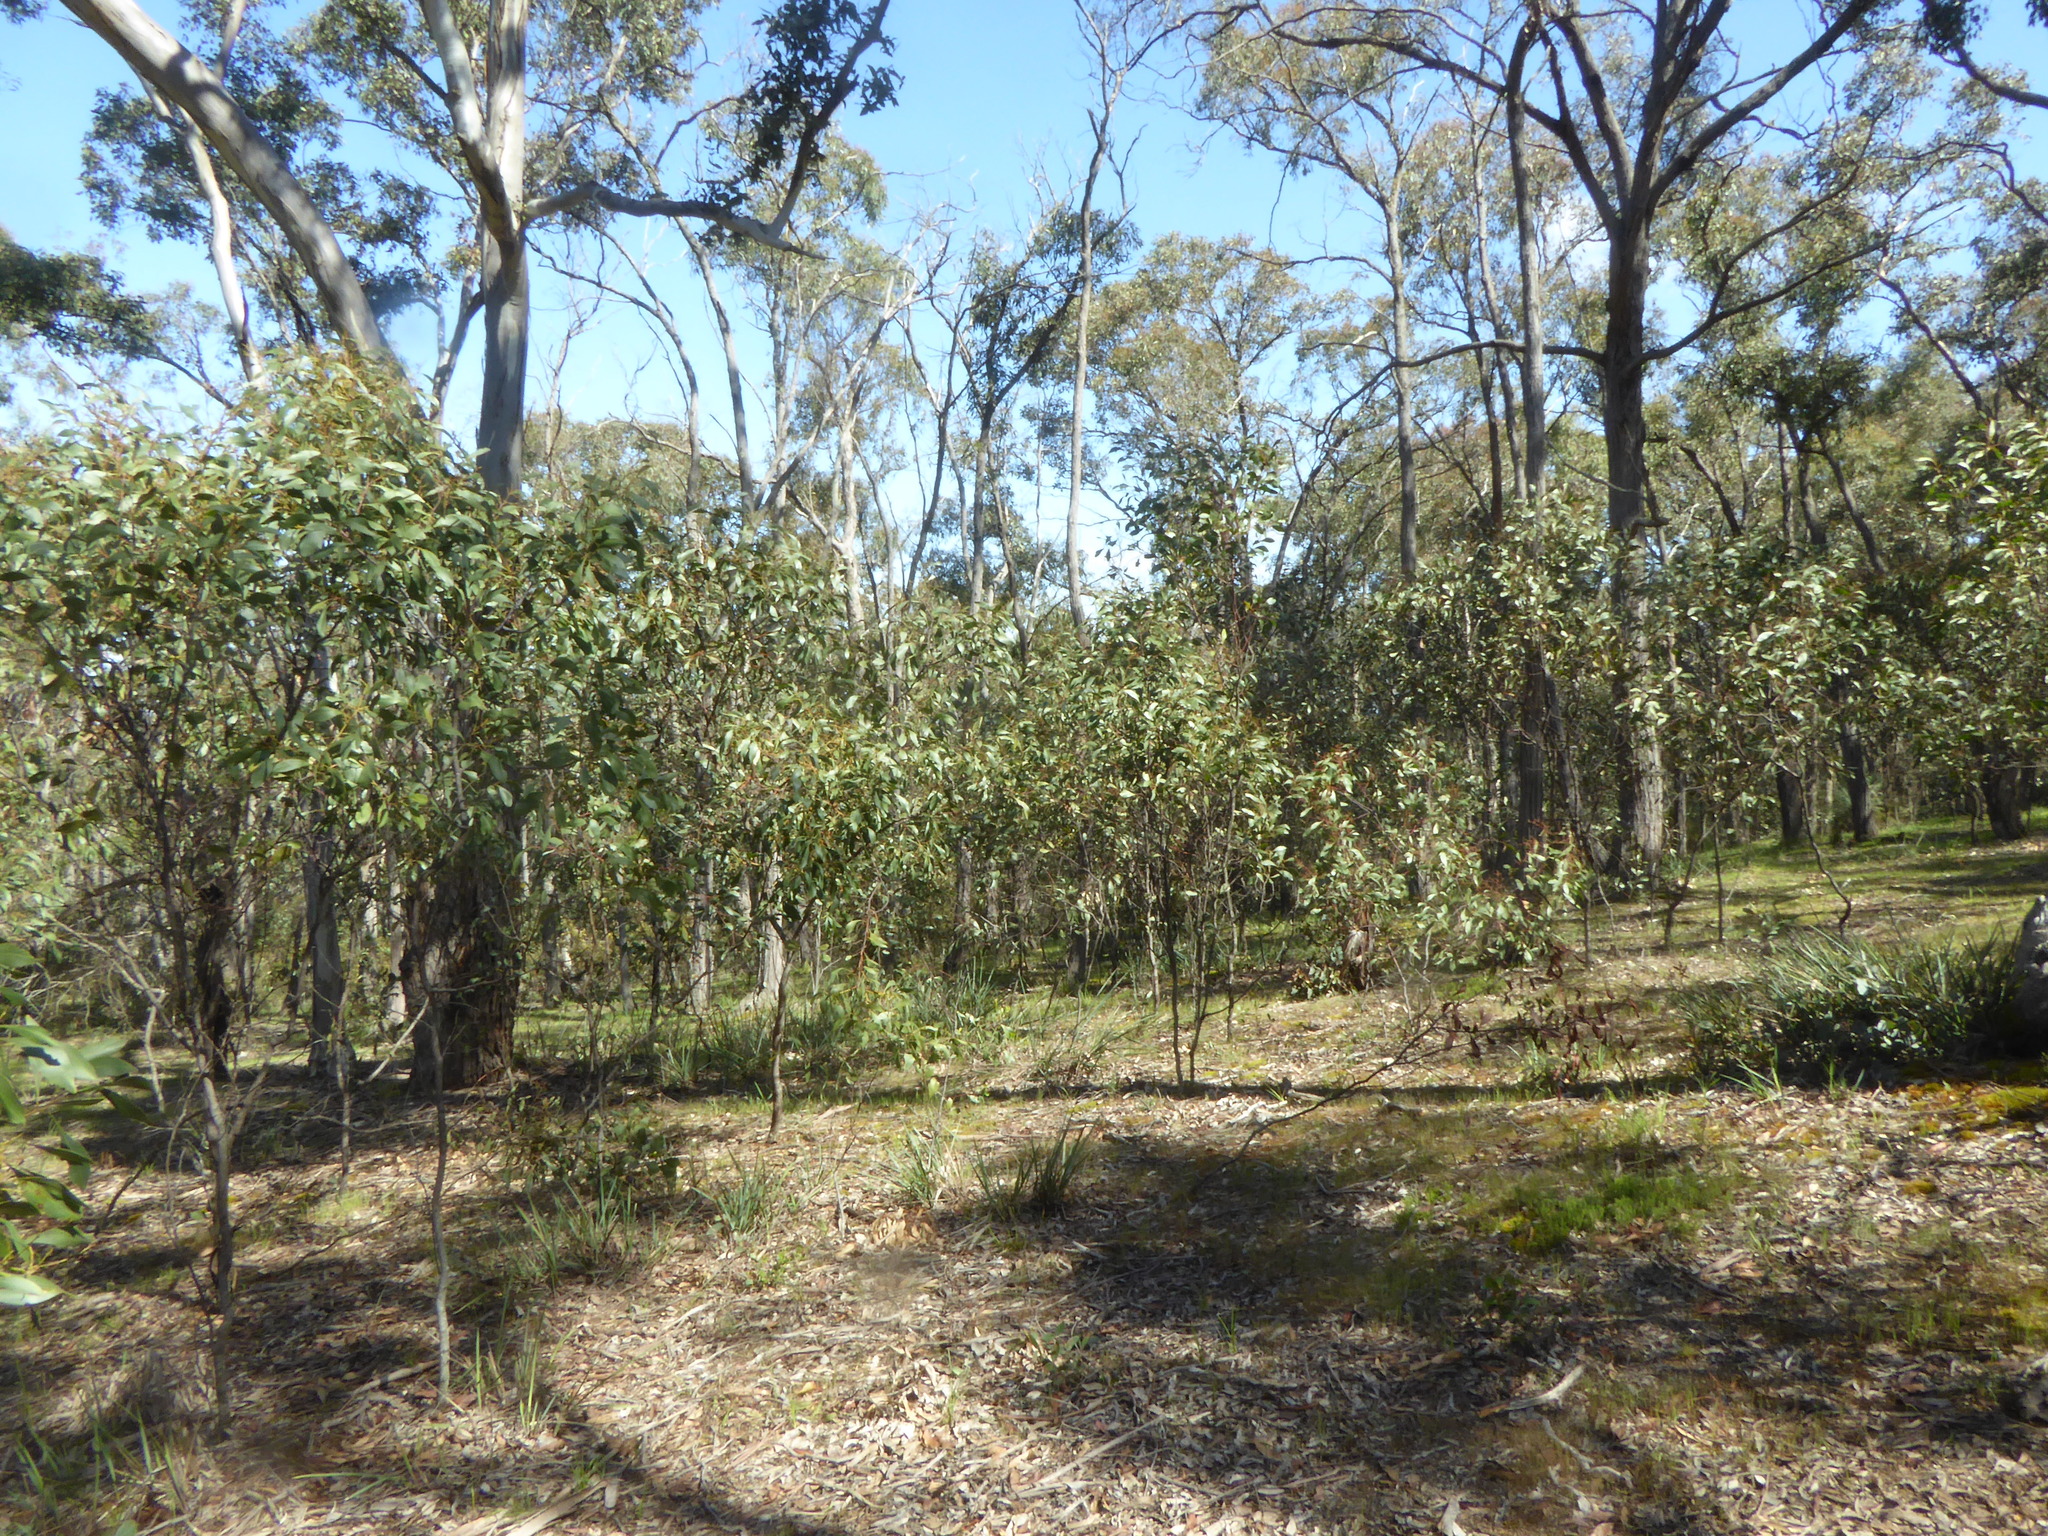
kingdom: Plantae
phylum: Tracheophyta
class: Magnoliopsida
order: Fabales
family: Fabaceae
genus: Acacia
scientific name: Acacia pycnantha
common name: Golden wattle
